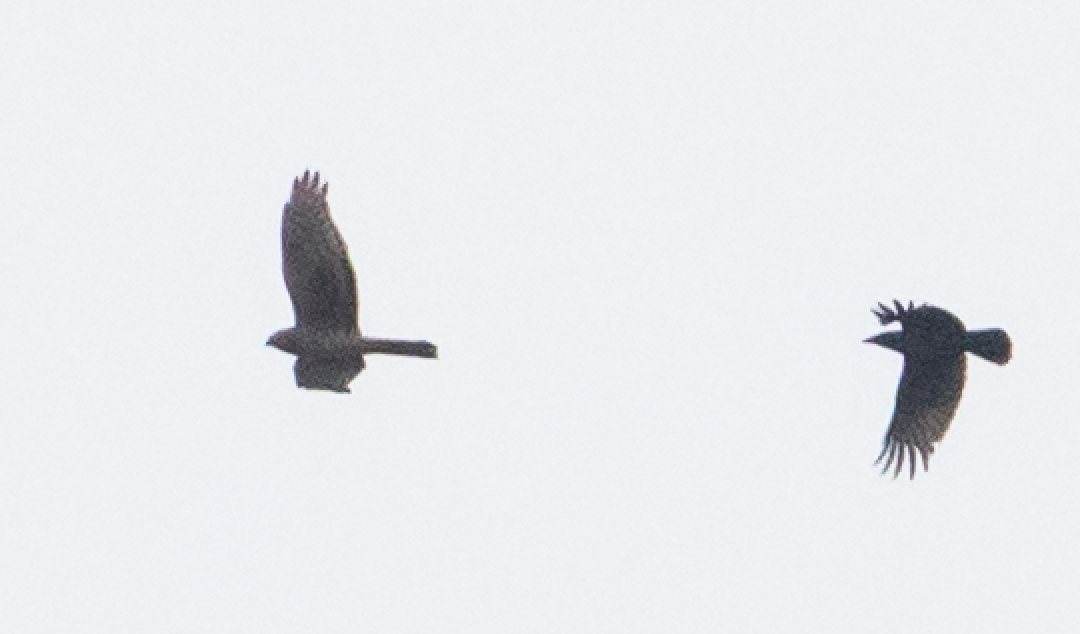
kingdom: Animalia
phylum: Chordata
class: Aves
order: Accipitriformes
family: Accipitridae
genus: Circus
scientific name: Circus cyaneus
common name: Hen harrier
